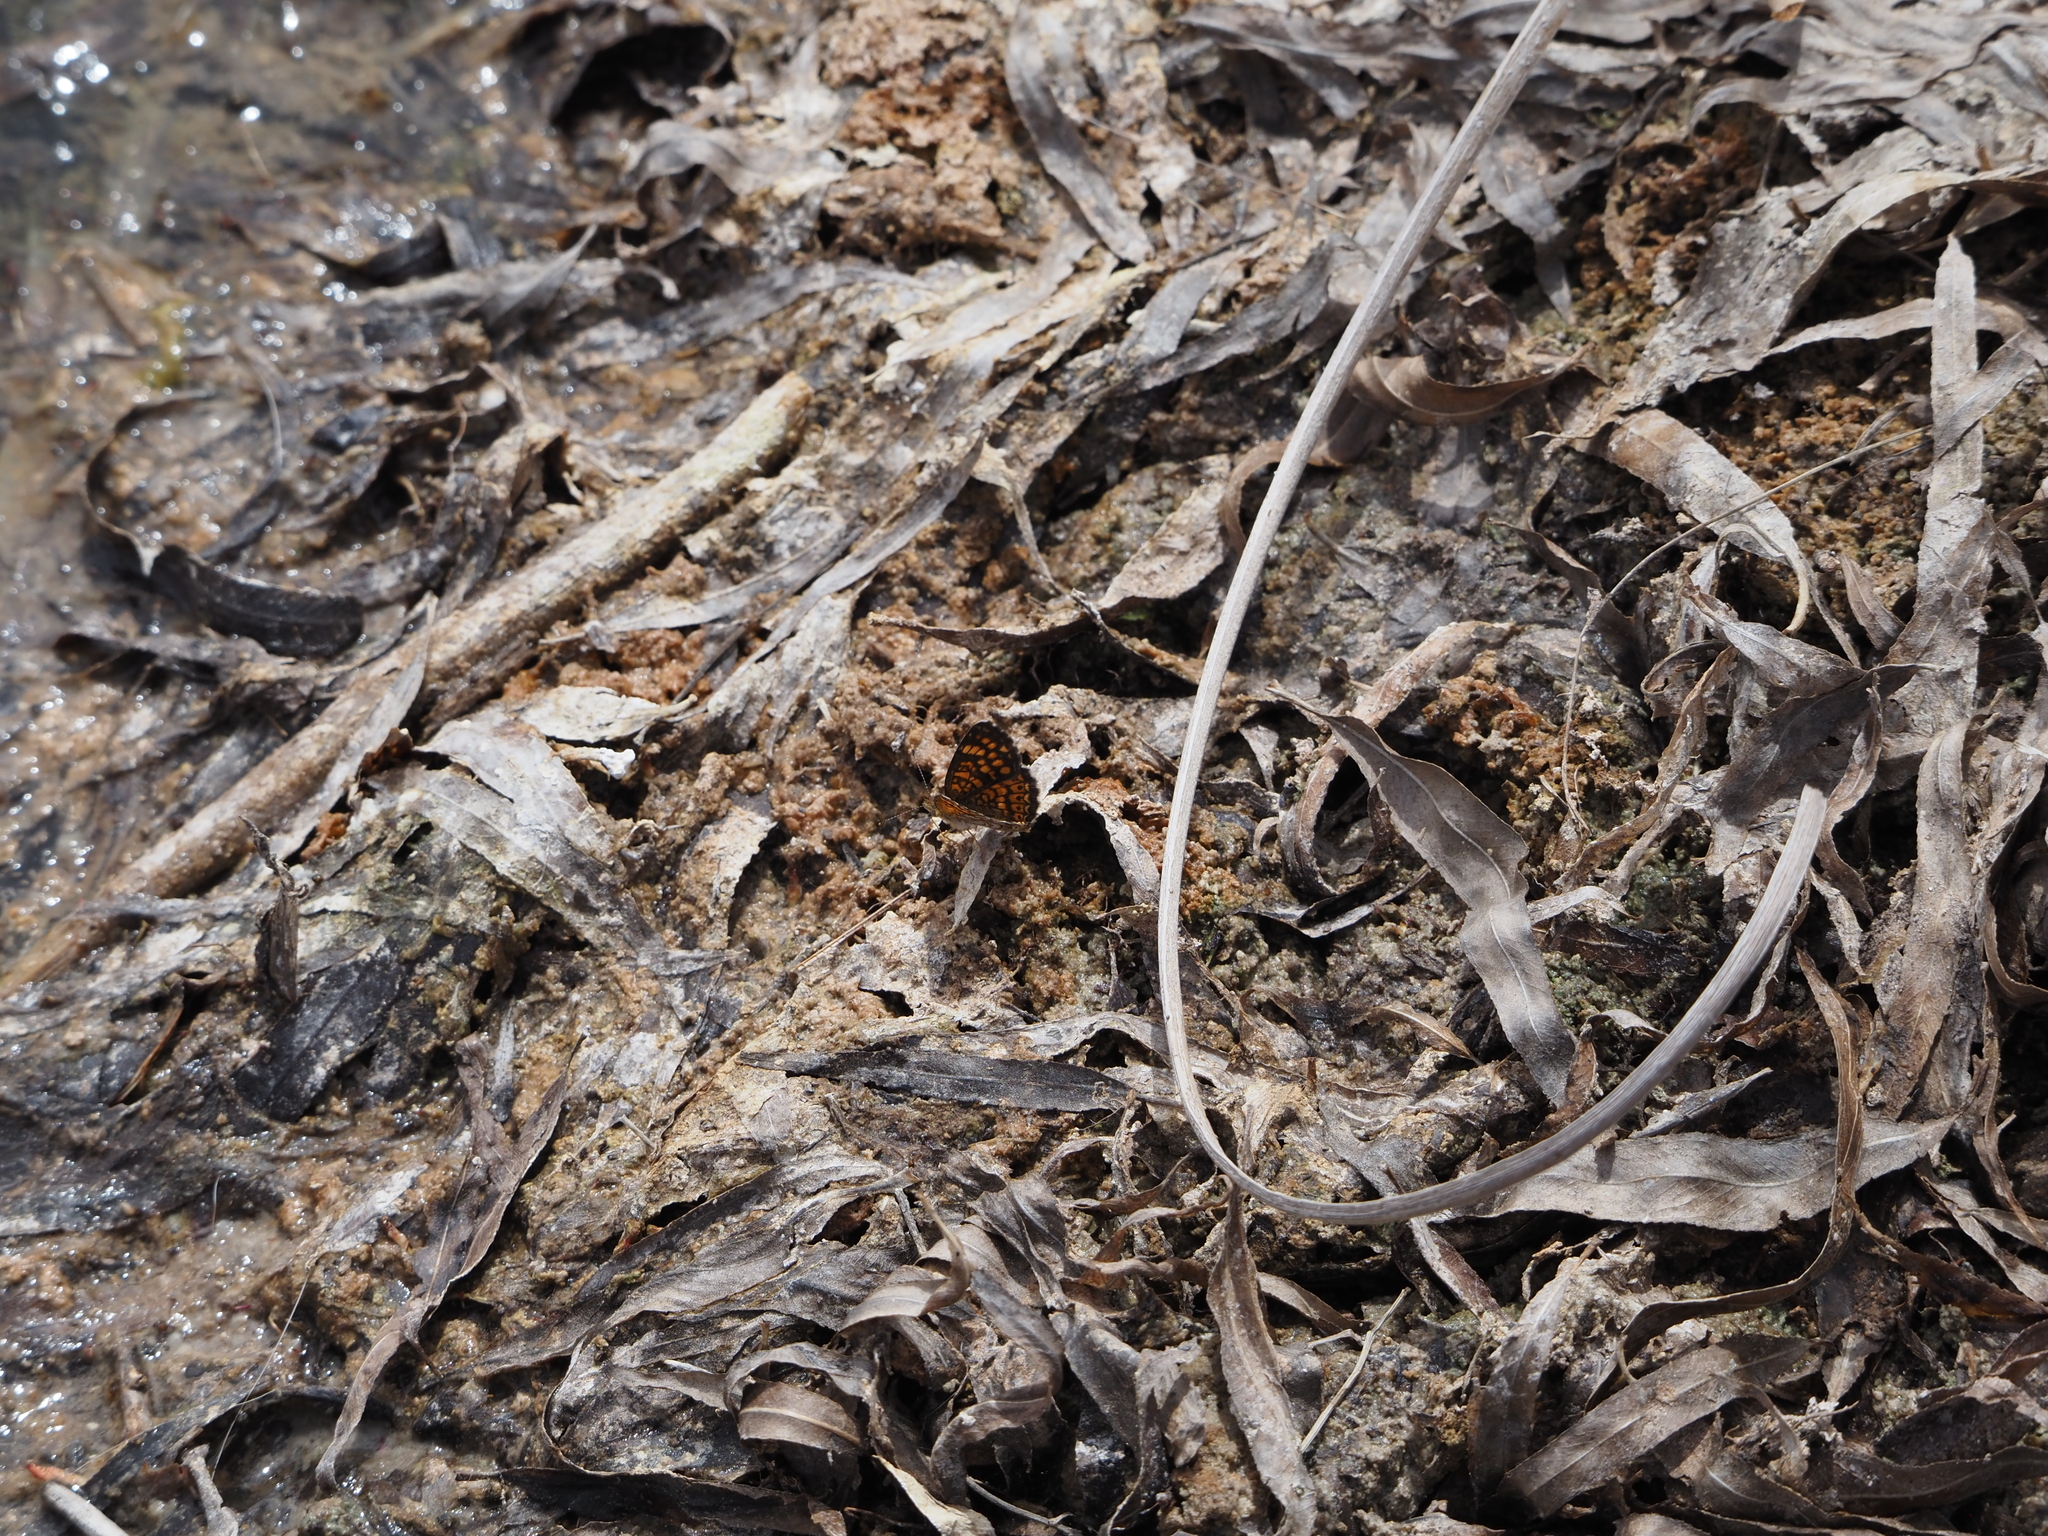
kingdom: Animalia
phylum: Arthropoda
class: Insecta
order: Lepidoptera
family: Nymphalidae
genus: Phyciodes
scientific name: Phyciodes vesta
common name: Vesta crescent
